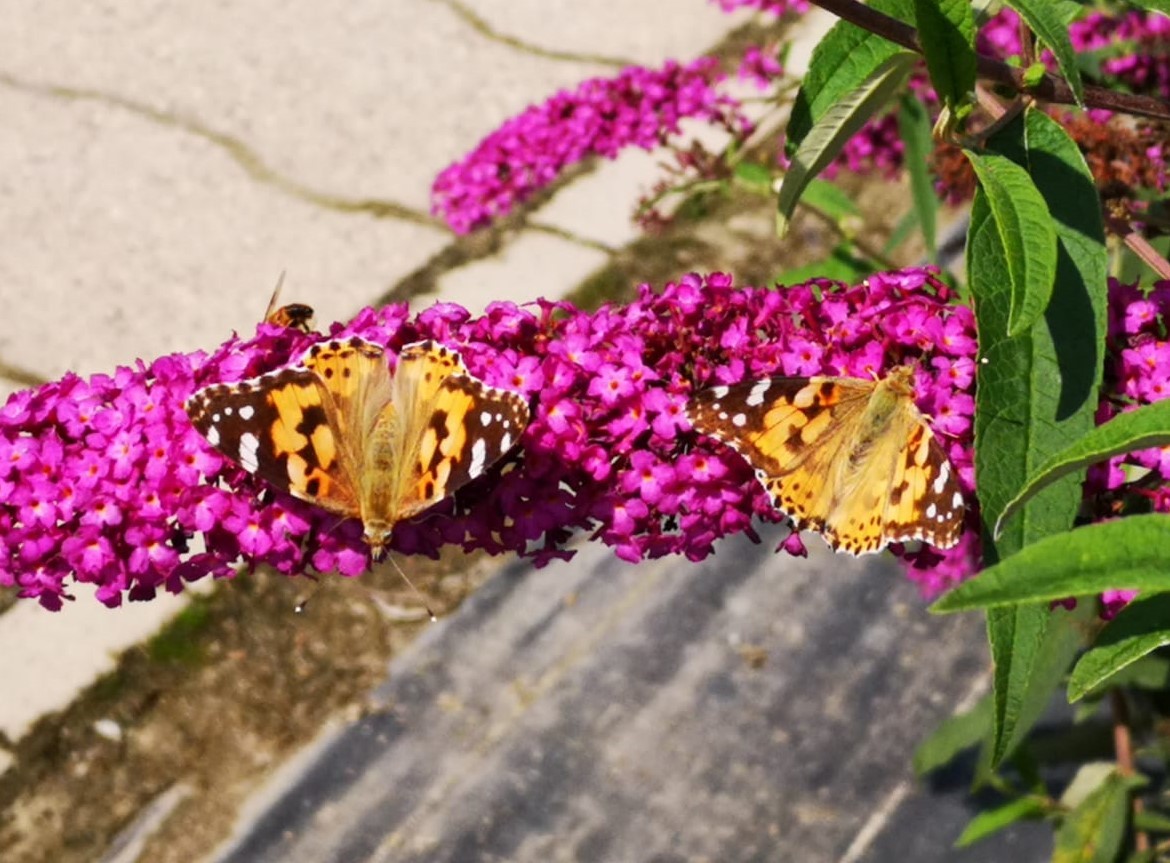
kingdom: Animalia
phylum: Arthropoda
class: Insecta
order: Lepidoptera
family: Nymphalidae
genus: Vanessa
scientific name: Vanessa cardui
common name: Painted lady
